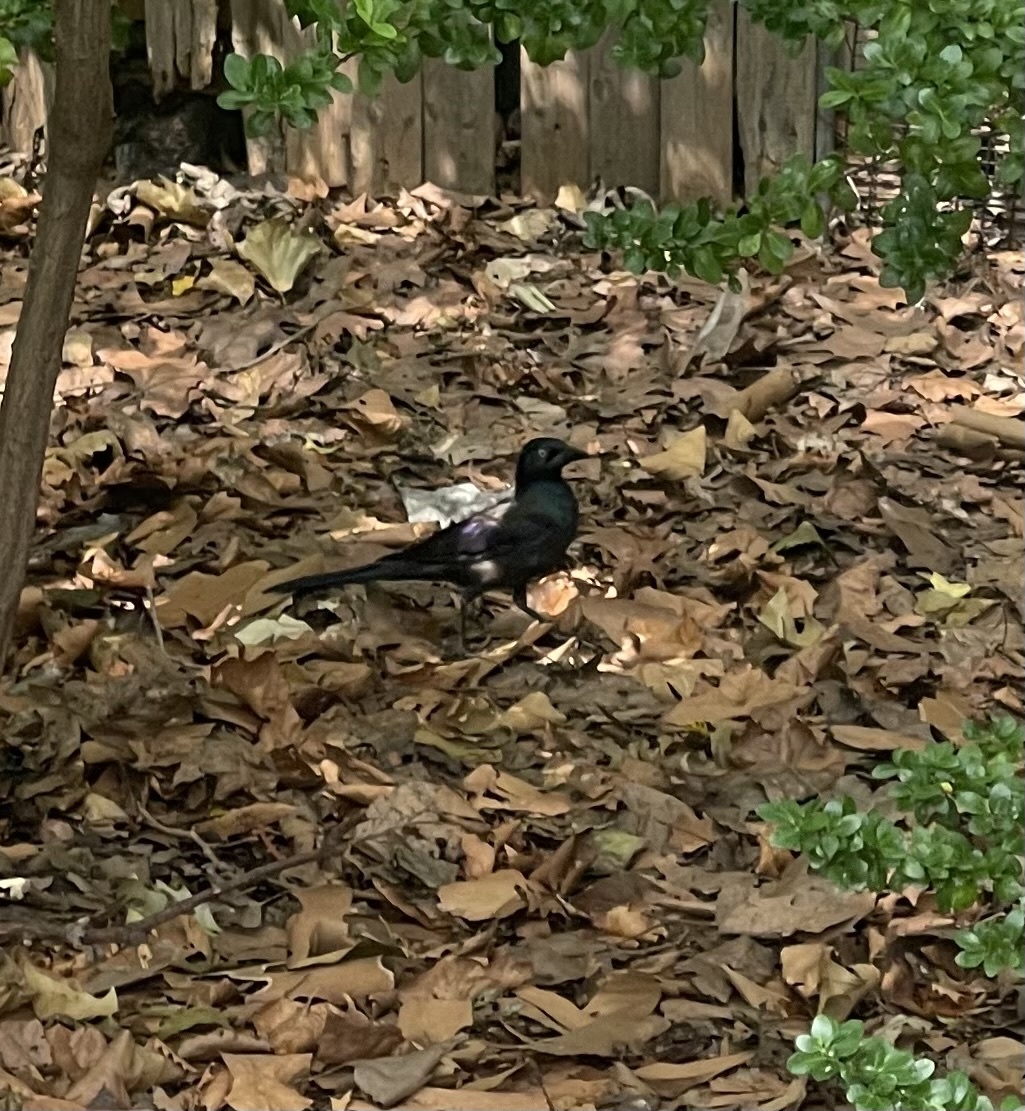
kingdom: Animalia
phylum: Chordata
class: Aves
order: Passeriformes
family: Icteridae
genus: Quiscalus
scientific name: Quiscalus quiscula
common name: Common grackle
